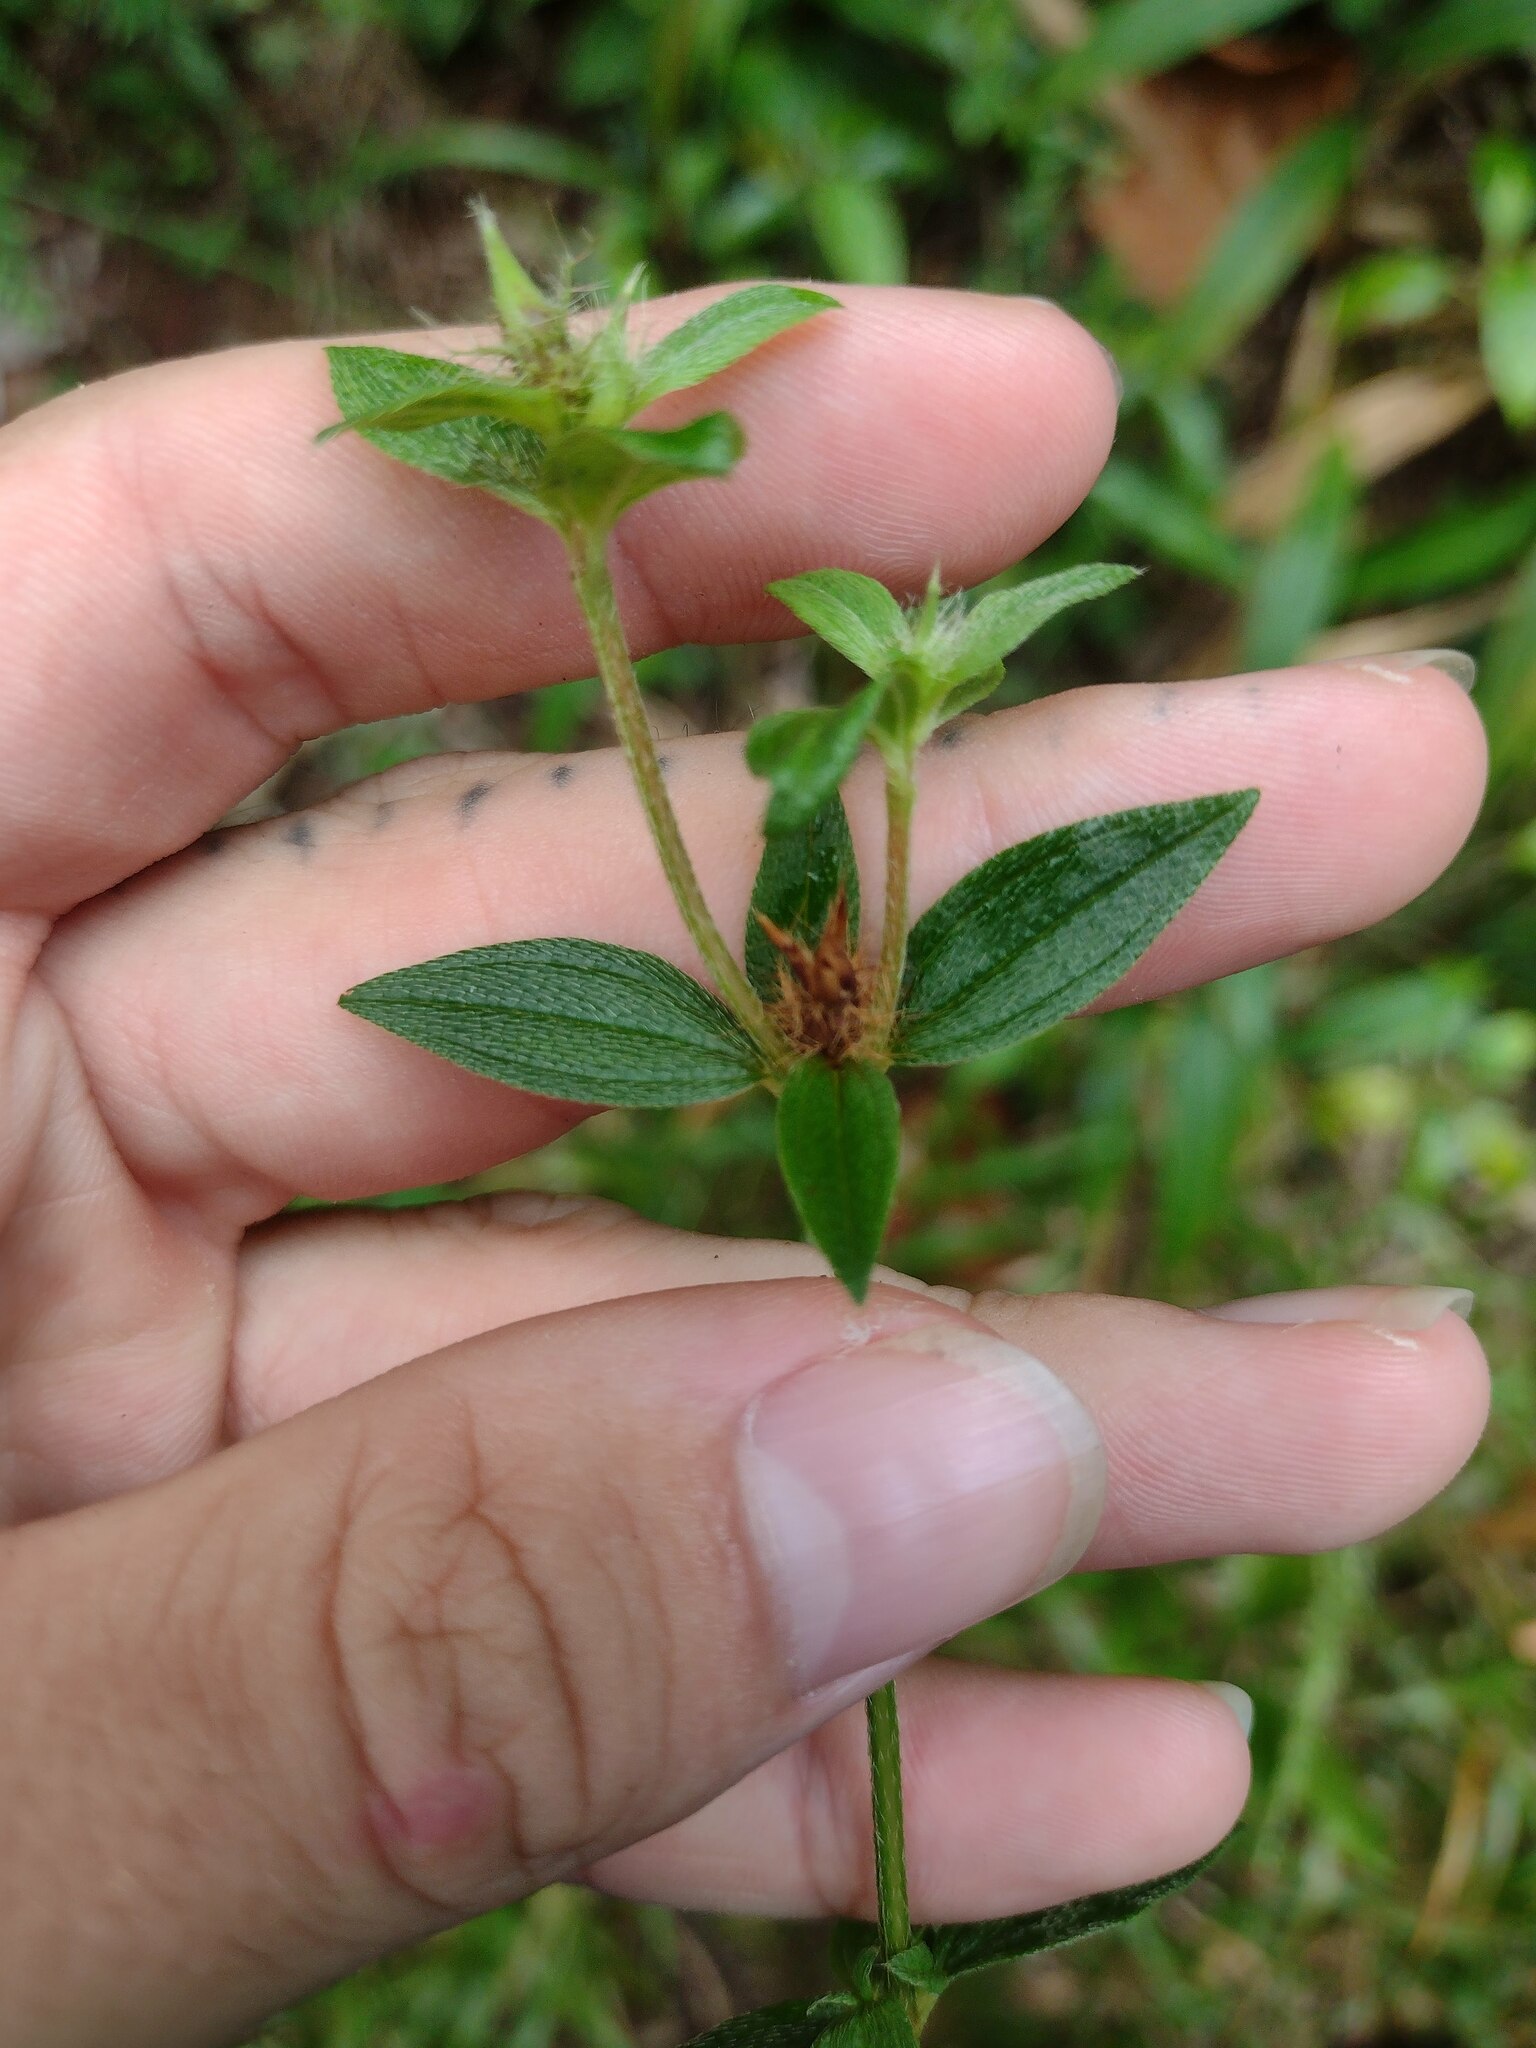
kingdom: Plantae
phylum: Tracheophyta
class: Magnoliopsida
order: Myrtales
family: Melastomataceae
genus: Pterolepis
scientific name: Pterolepis glomerata
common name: False meadowbeauty
